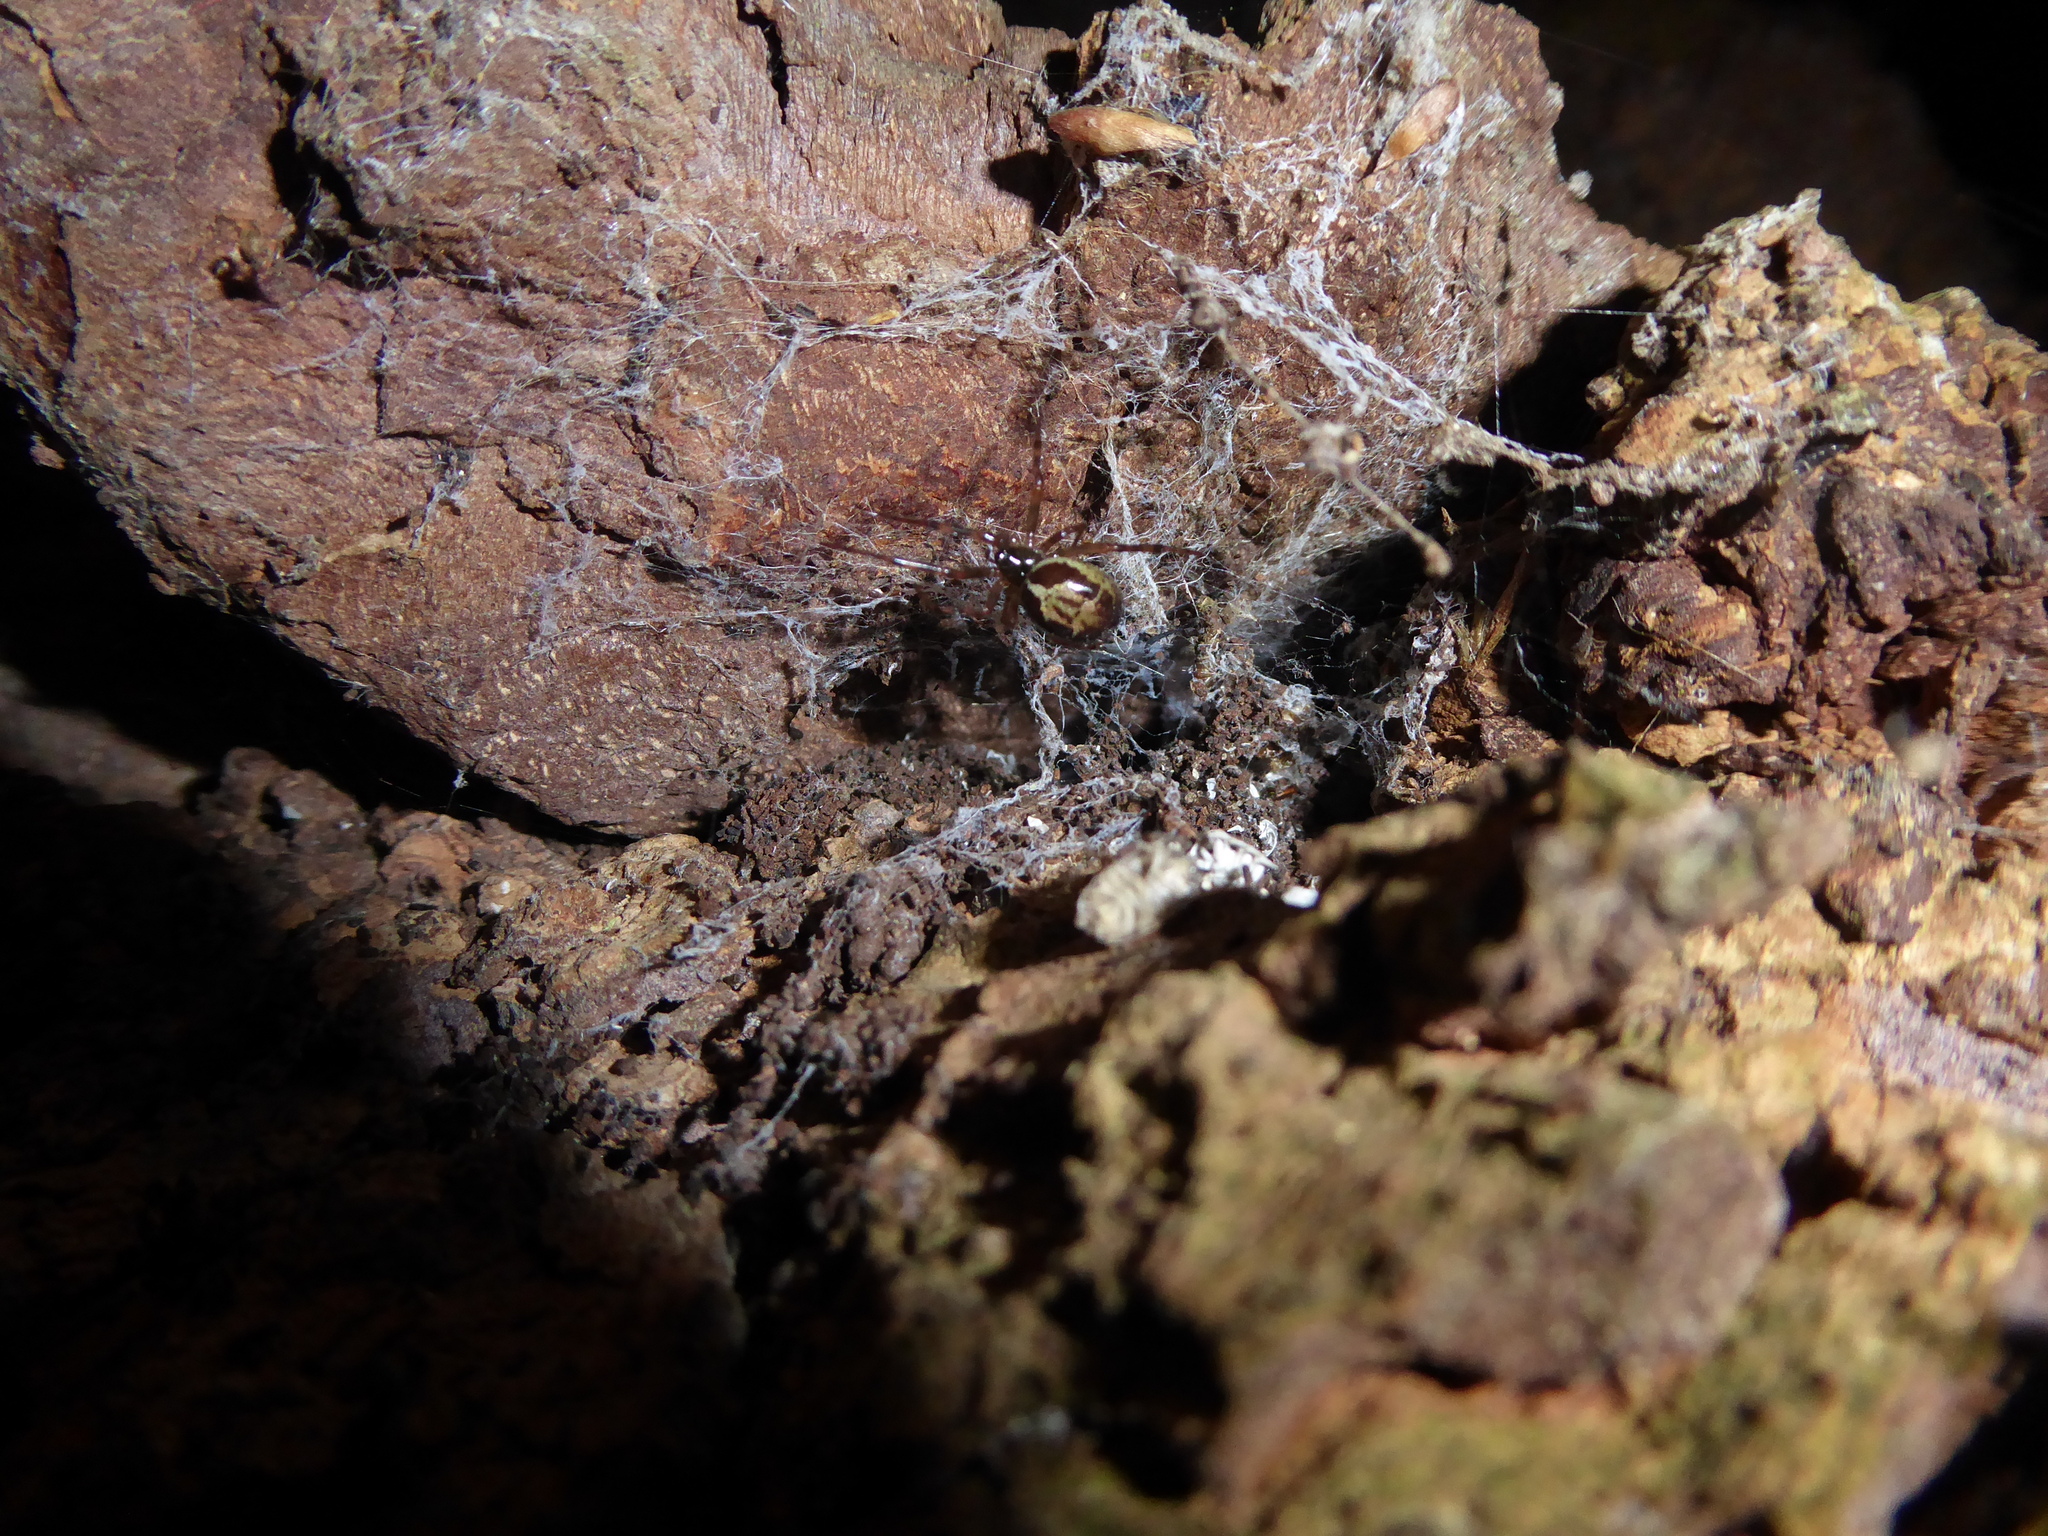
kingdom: Animalia
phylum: Arthropoda
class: Arachnida
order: Araneae
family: Theridiidae
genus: Steatoda
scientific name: Steatoda nobilis
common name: Cobweb weaver
